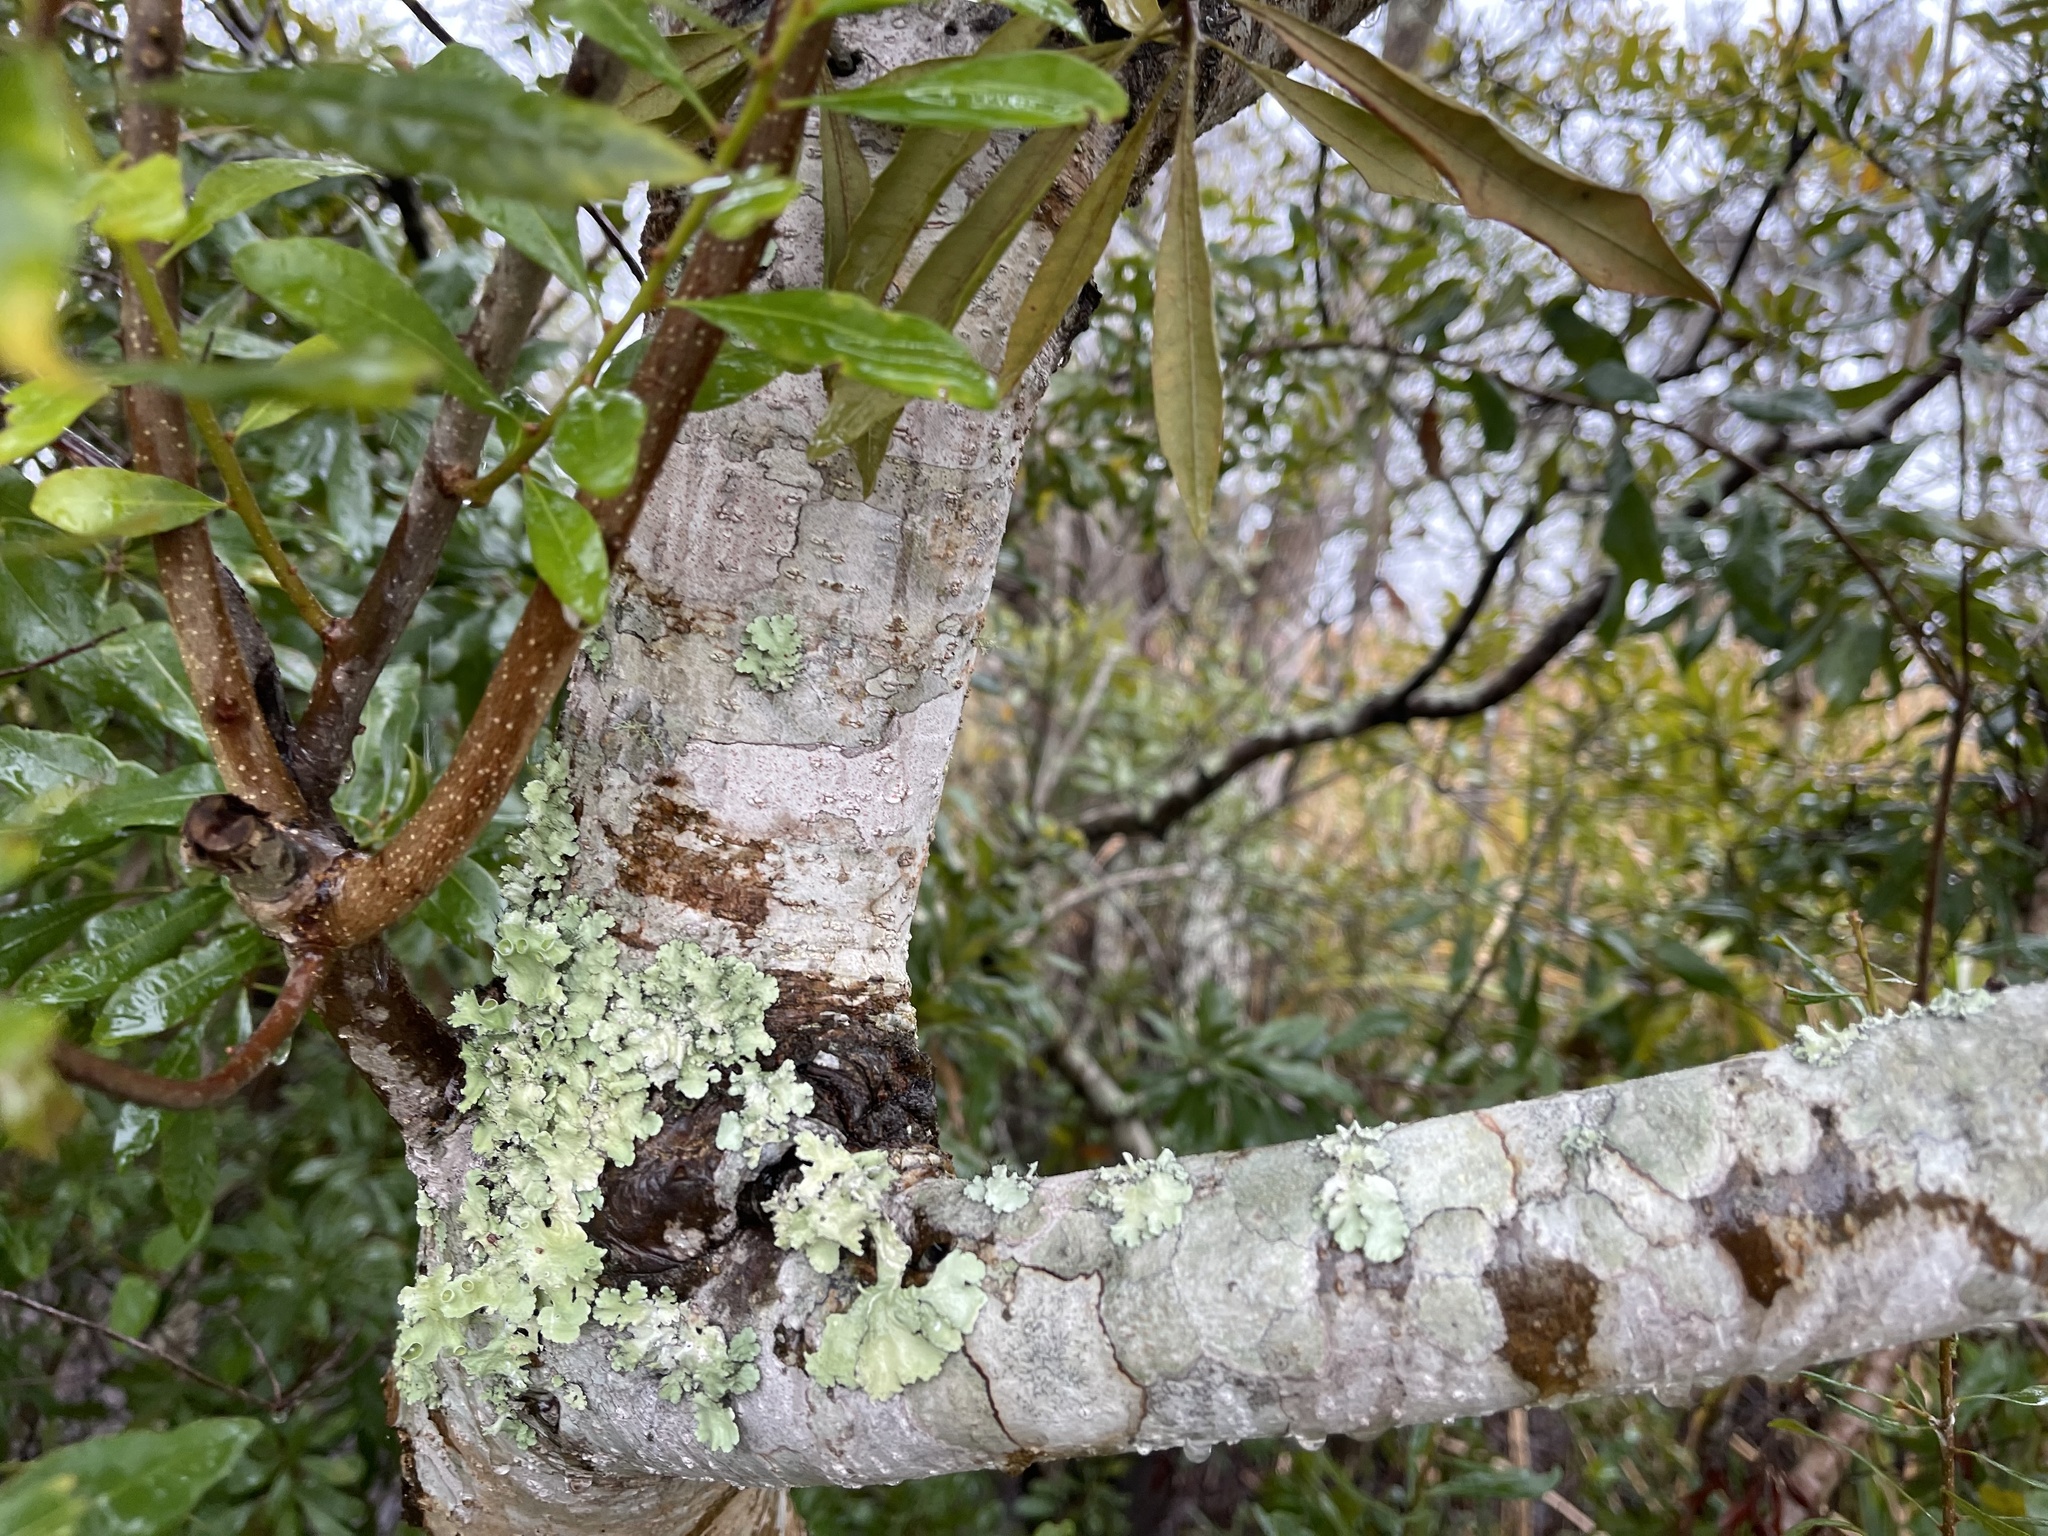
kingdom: Plantae
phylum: Tracheophyta
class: Magnoliopsida
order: Fagales
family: Myricaceae
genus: Morella
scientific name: Morella cerifera
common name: Wax myrtle
